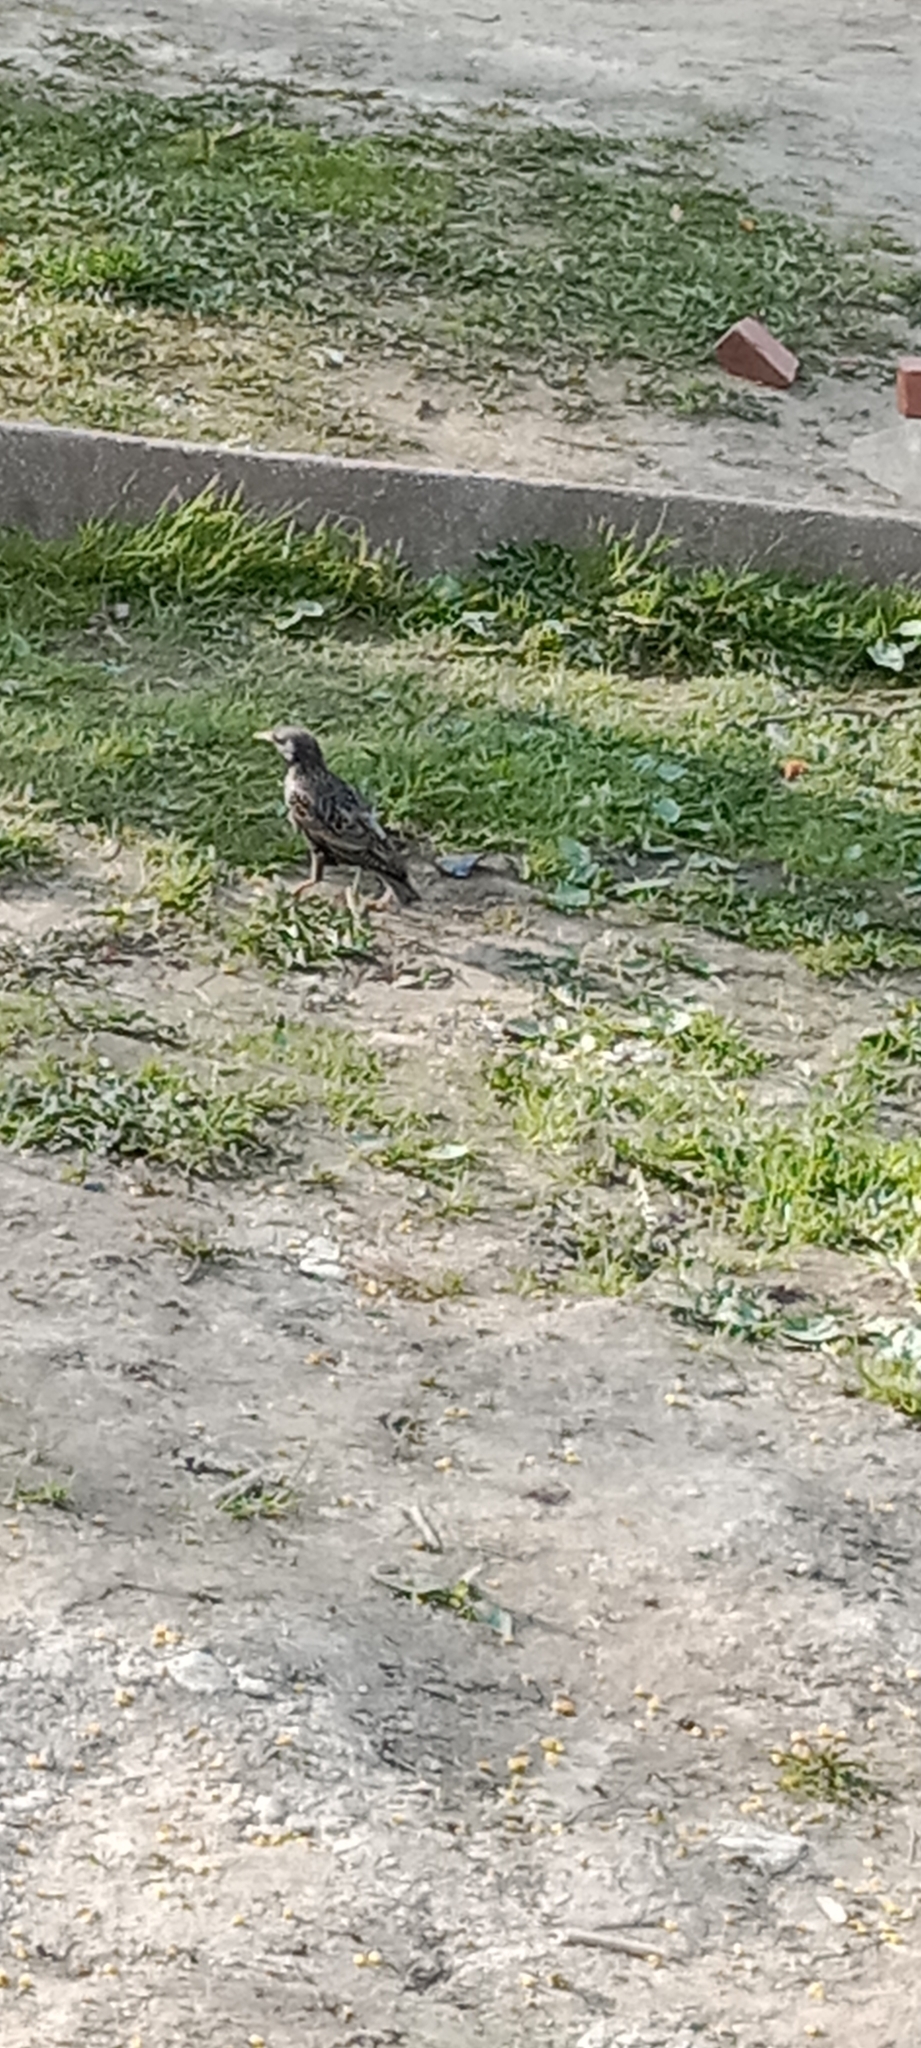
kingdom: Animalia
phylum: Chordata
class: Aves
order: Passeriformes
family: Sturnidae
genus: Sturnus
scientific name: Sturnus vulgaris
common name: Common starling
